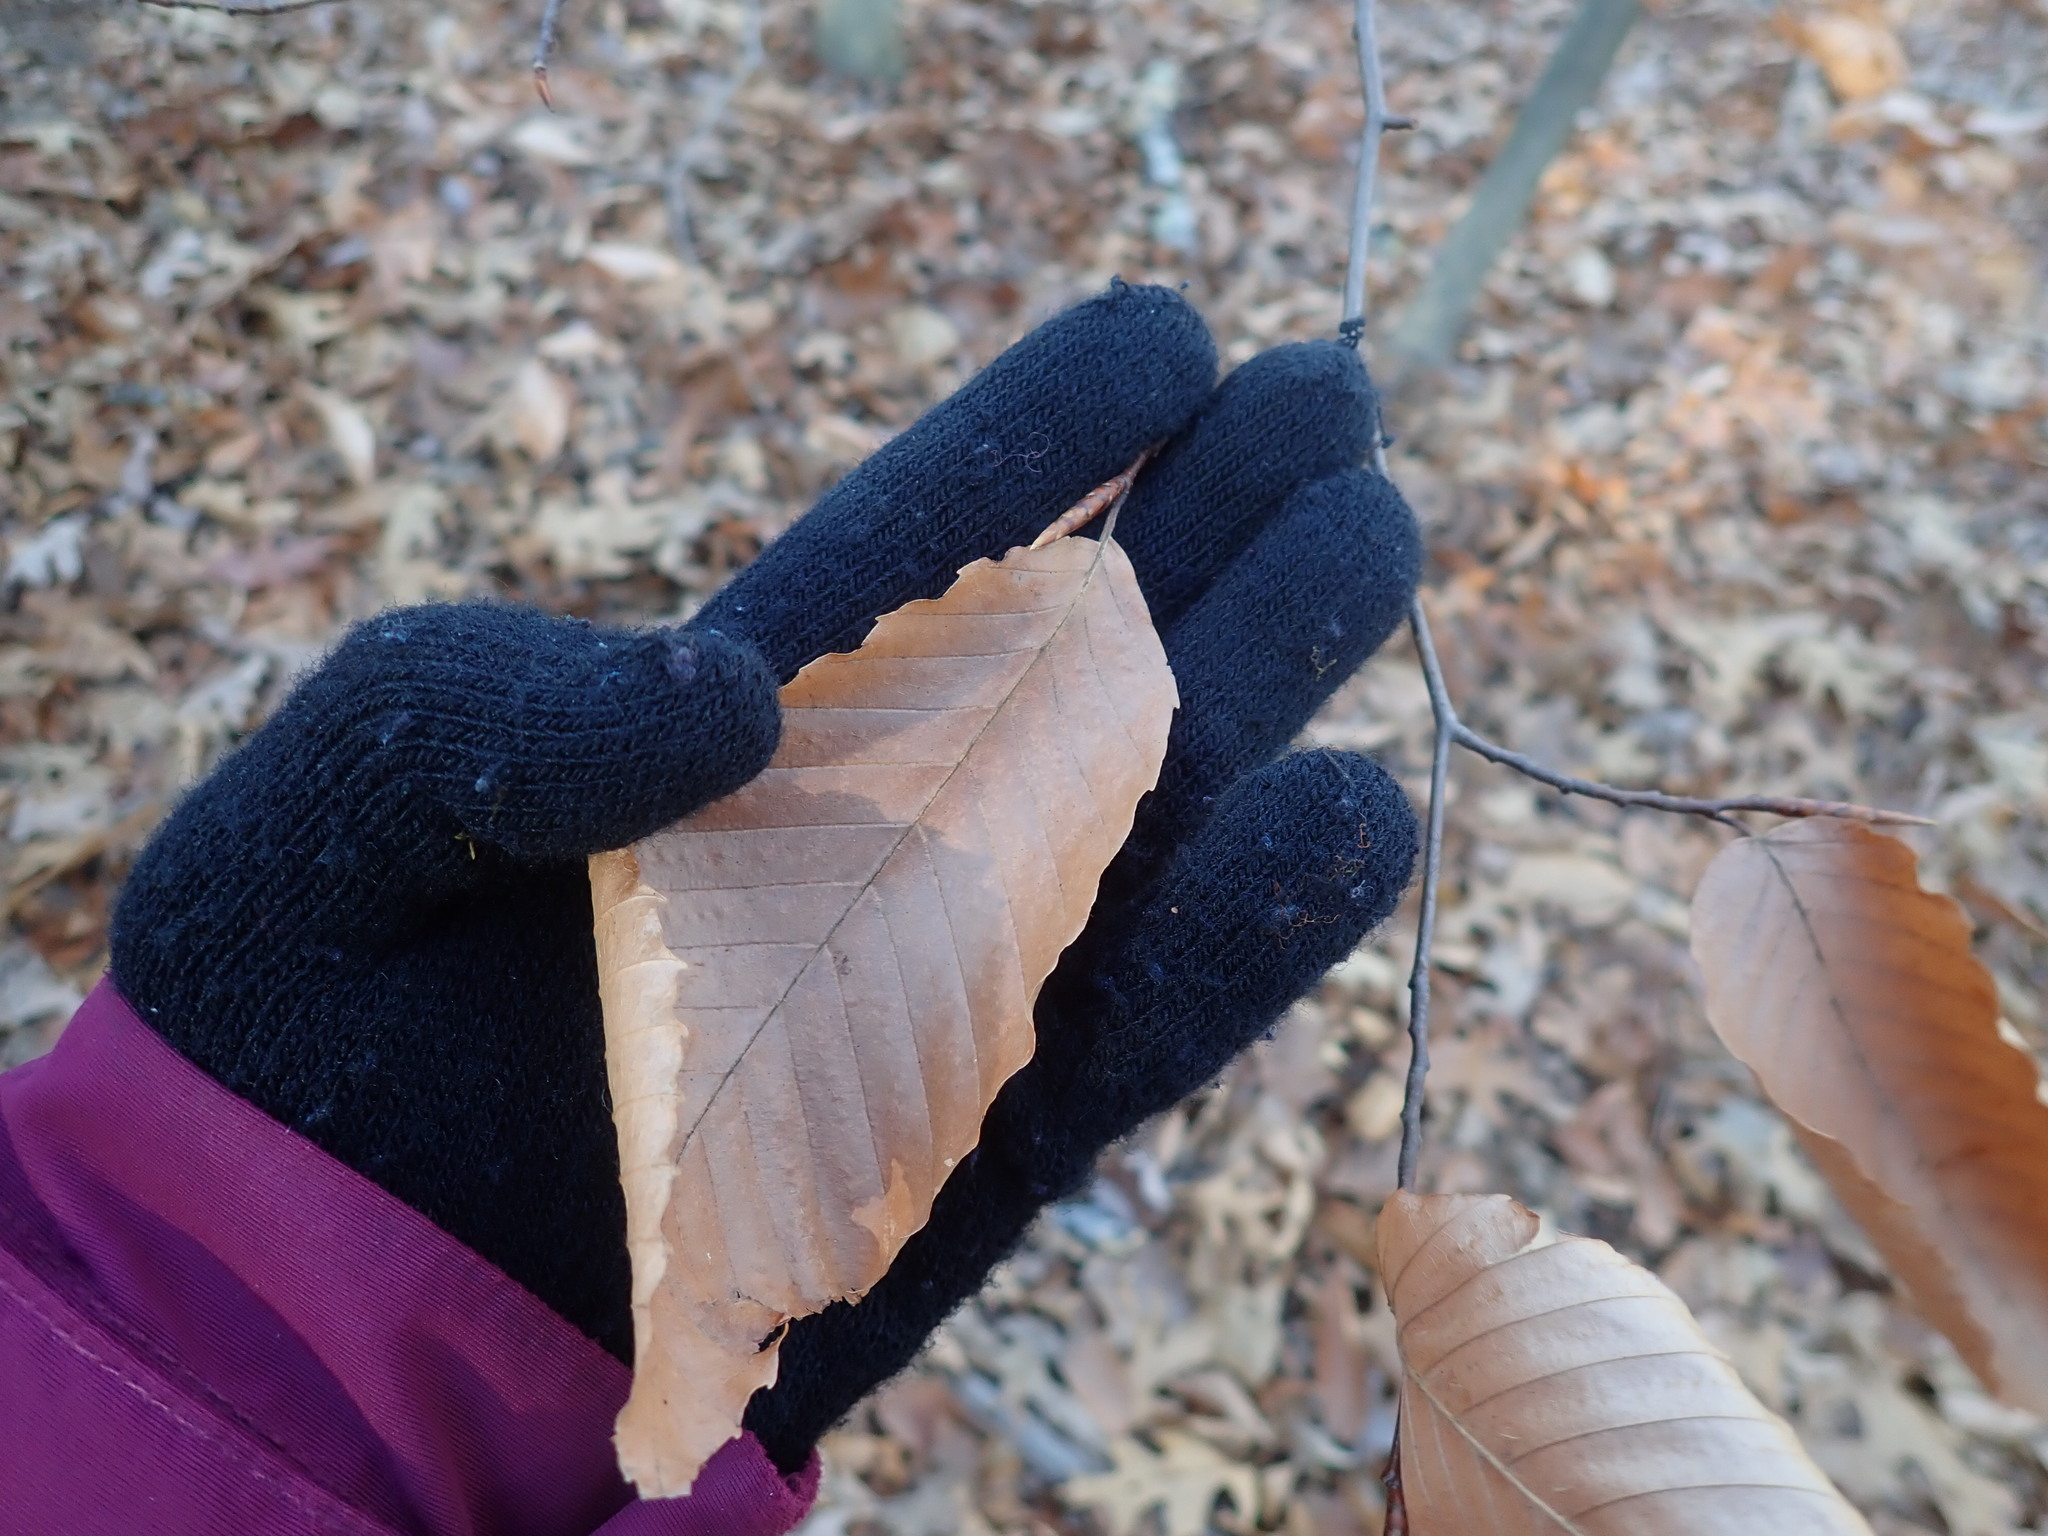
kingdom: Plantae
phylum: Tracheophyta
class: Magnoliopsida
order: Fagales
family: Fagaceae
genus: Fagus
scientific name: Fagus grandifolia
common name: American beech
